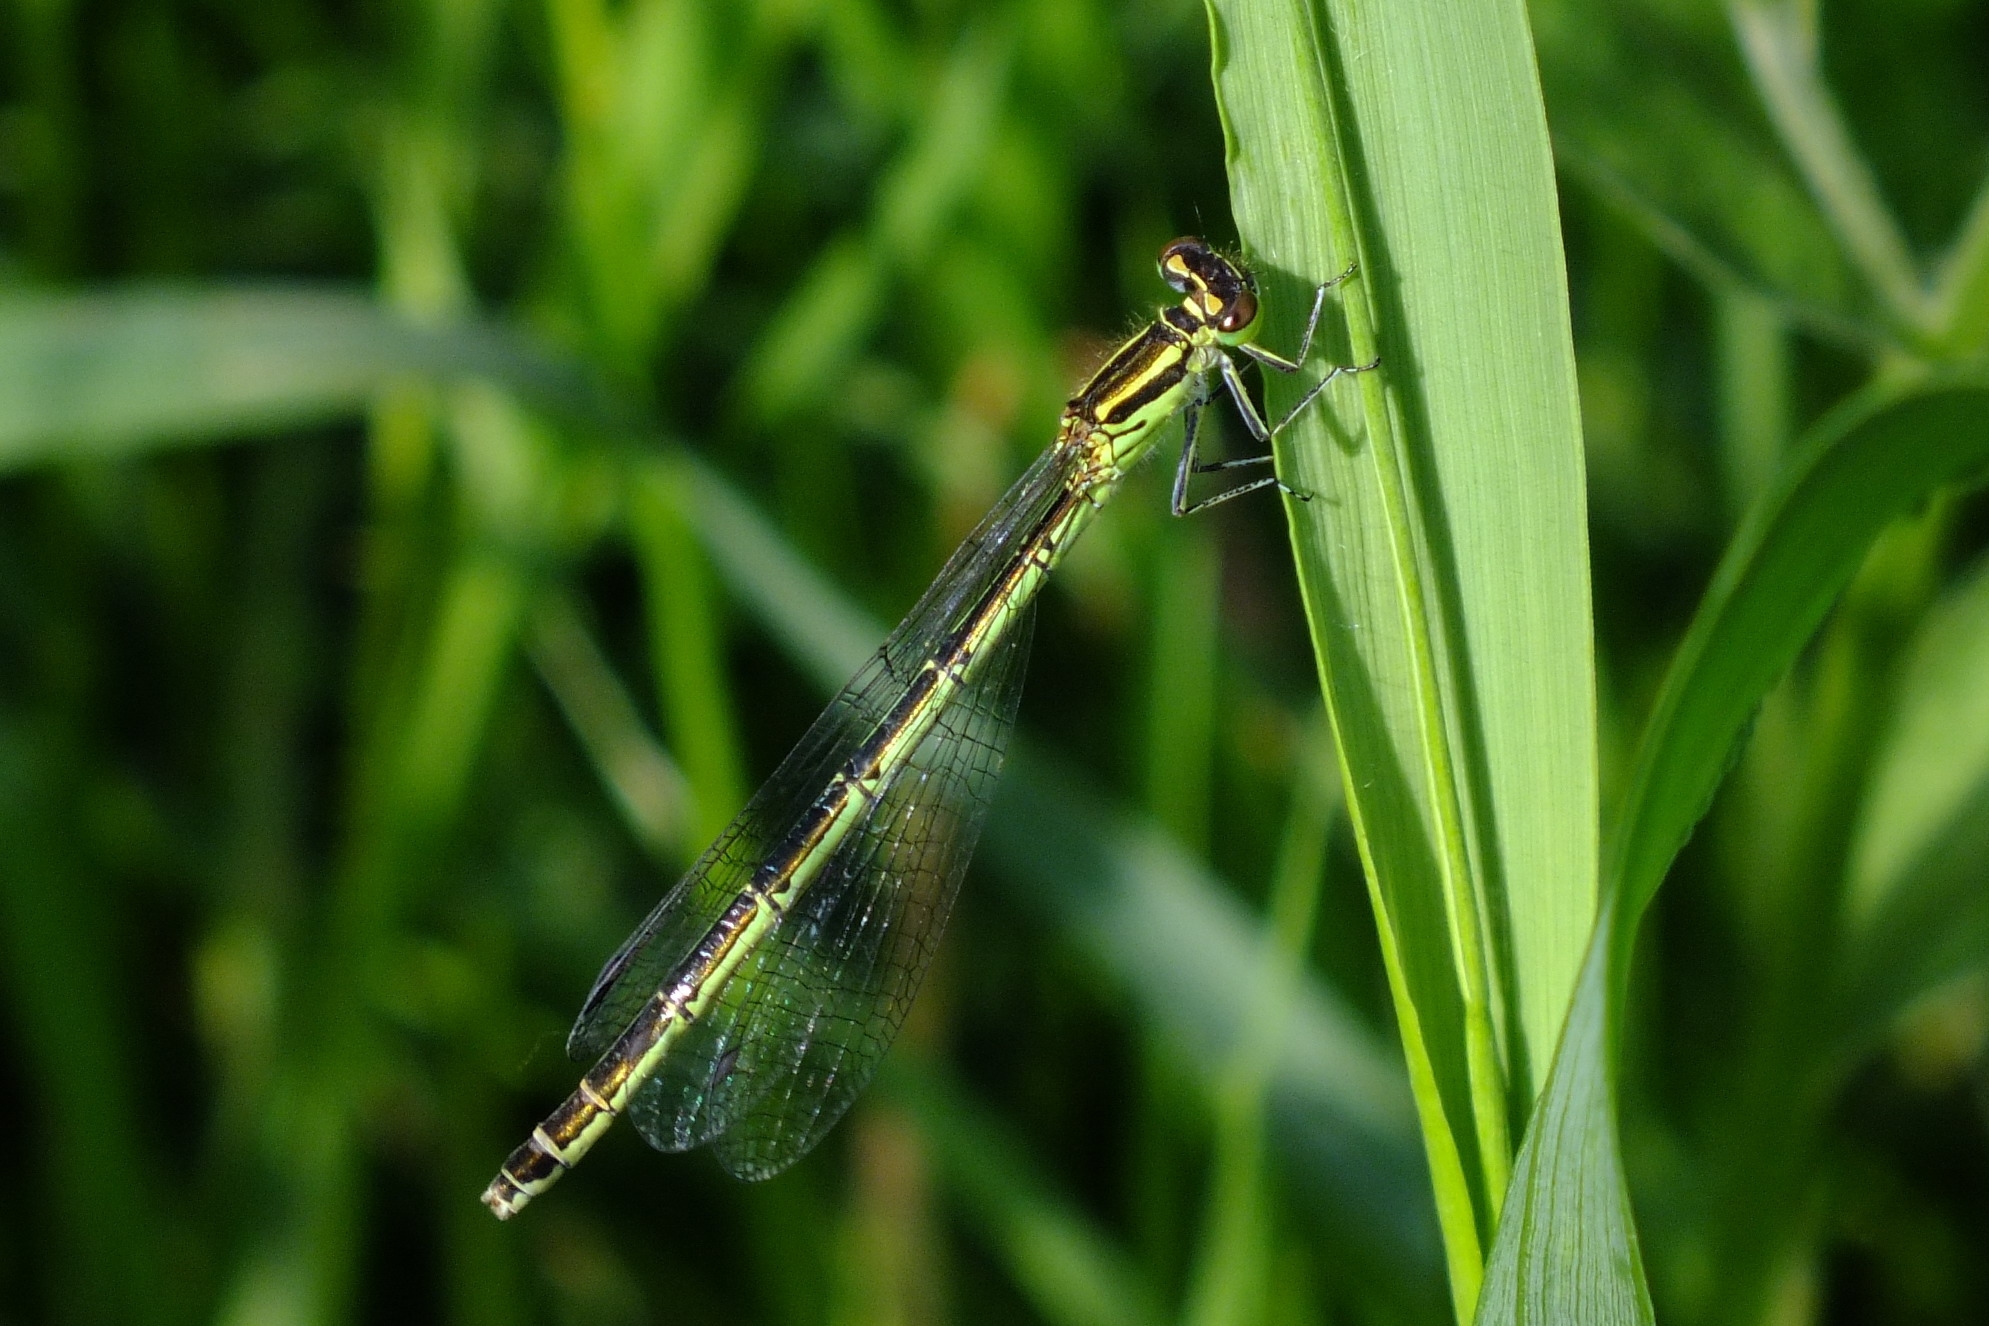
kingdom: Animalia
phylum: Arthropoda
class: Insecta
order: Odonata
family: Coenagrionidae
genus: Coenagrion
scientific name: Coenagrion hastulatum
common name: Spearhead bluet
